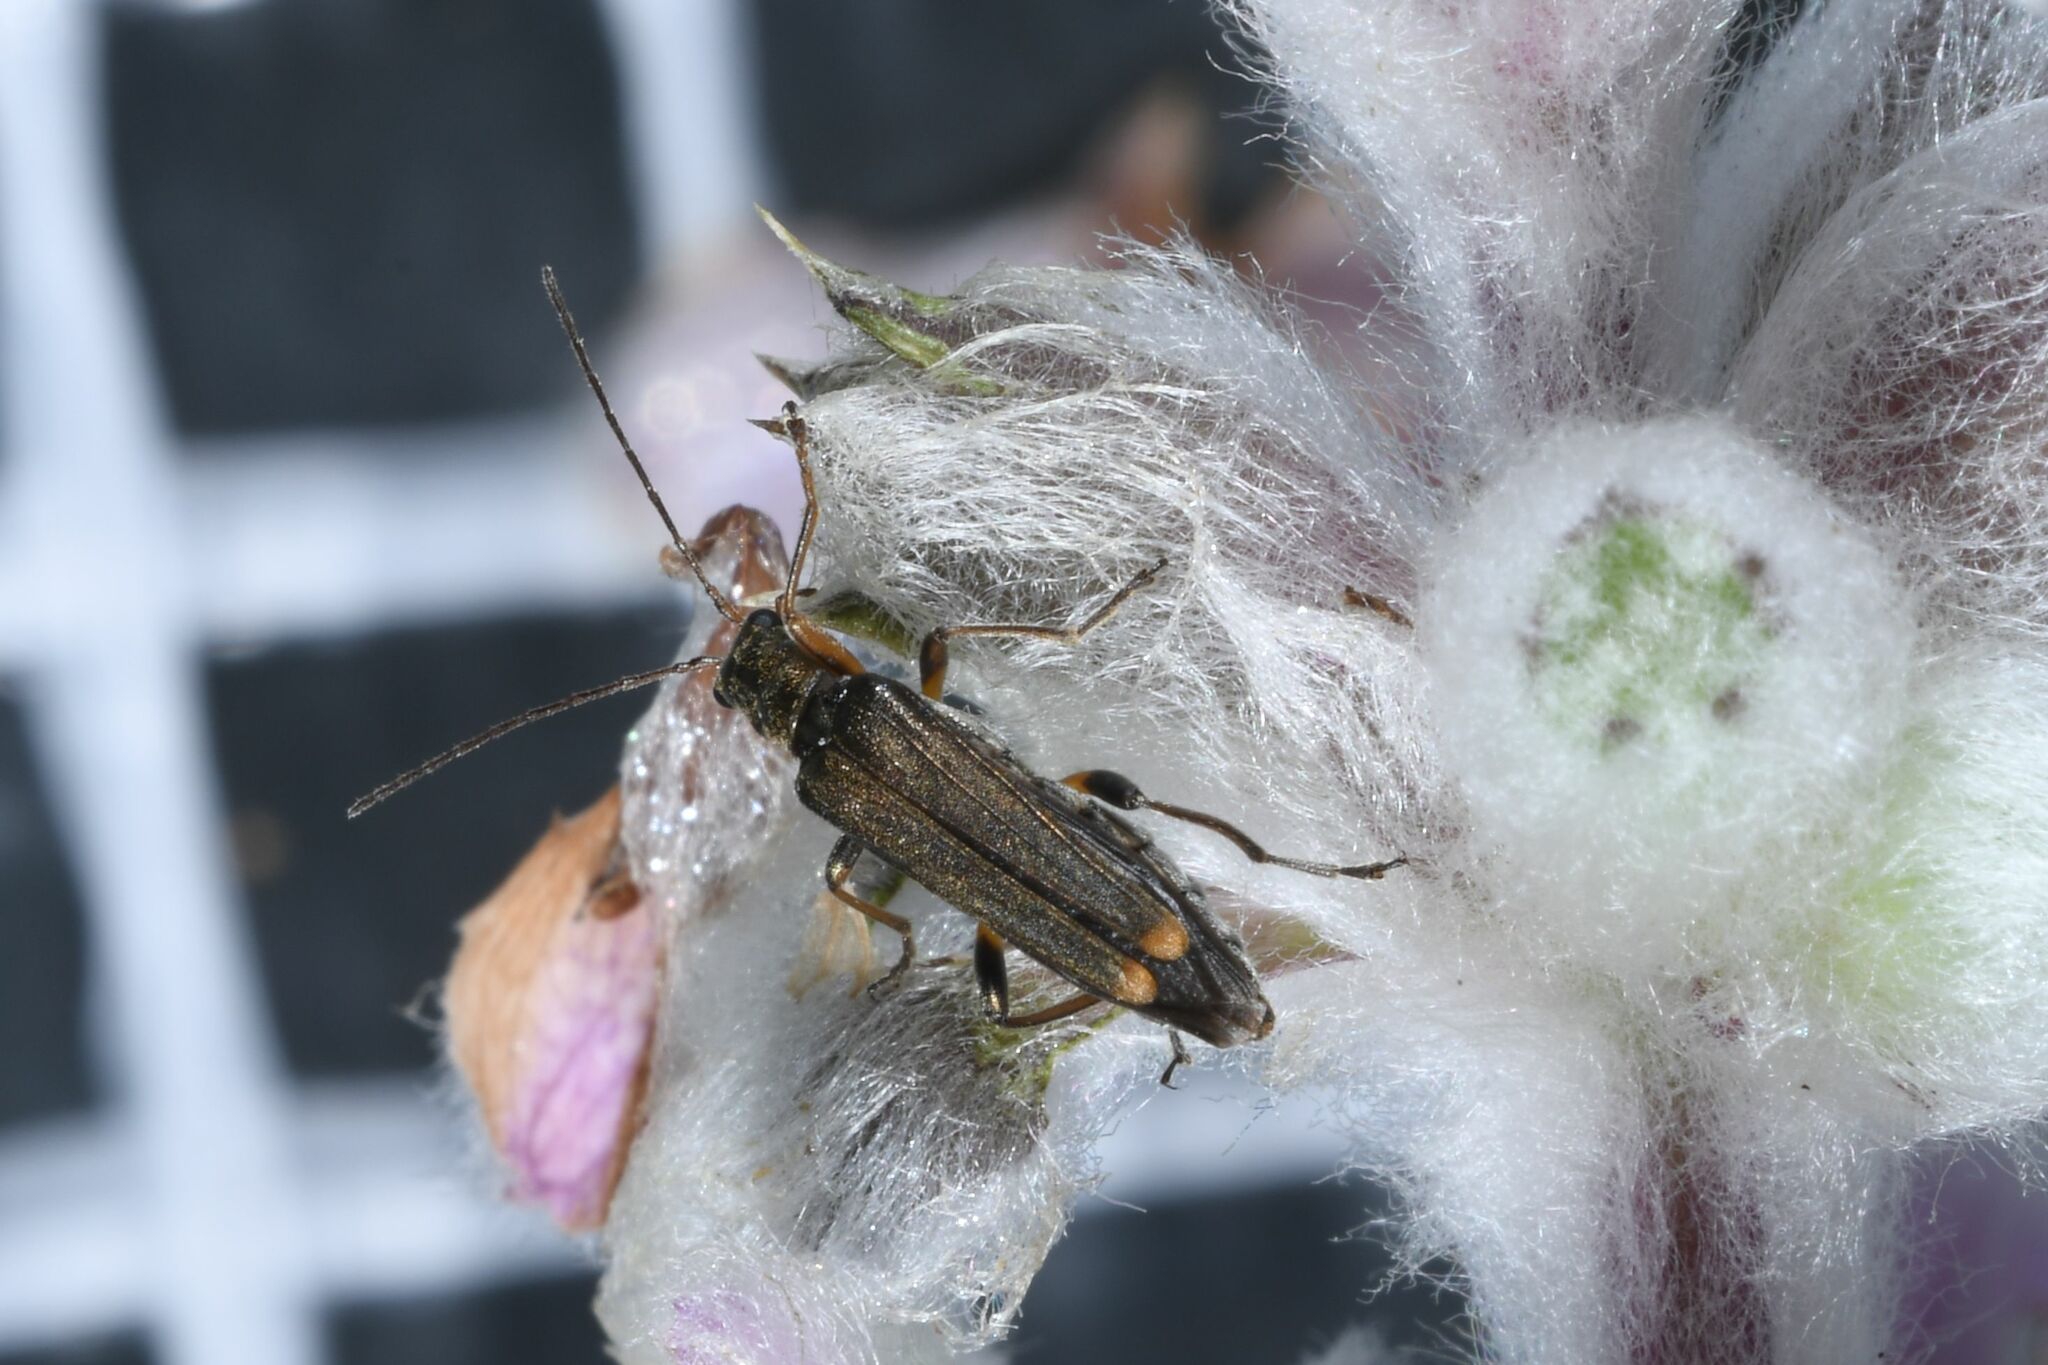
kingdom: Animalia
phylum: Arthropoda
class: Insecta
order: Coleoptera
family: Oedemeridae
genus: Oedemera
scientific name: Oedemera barbara
